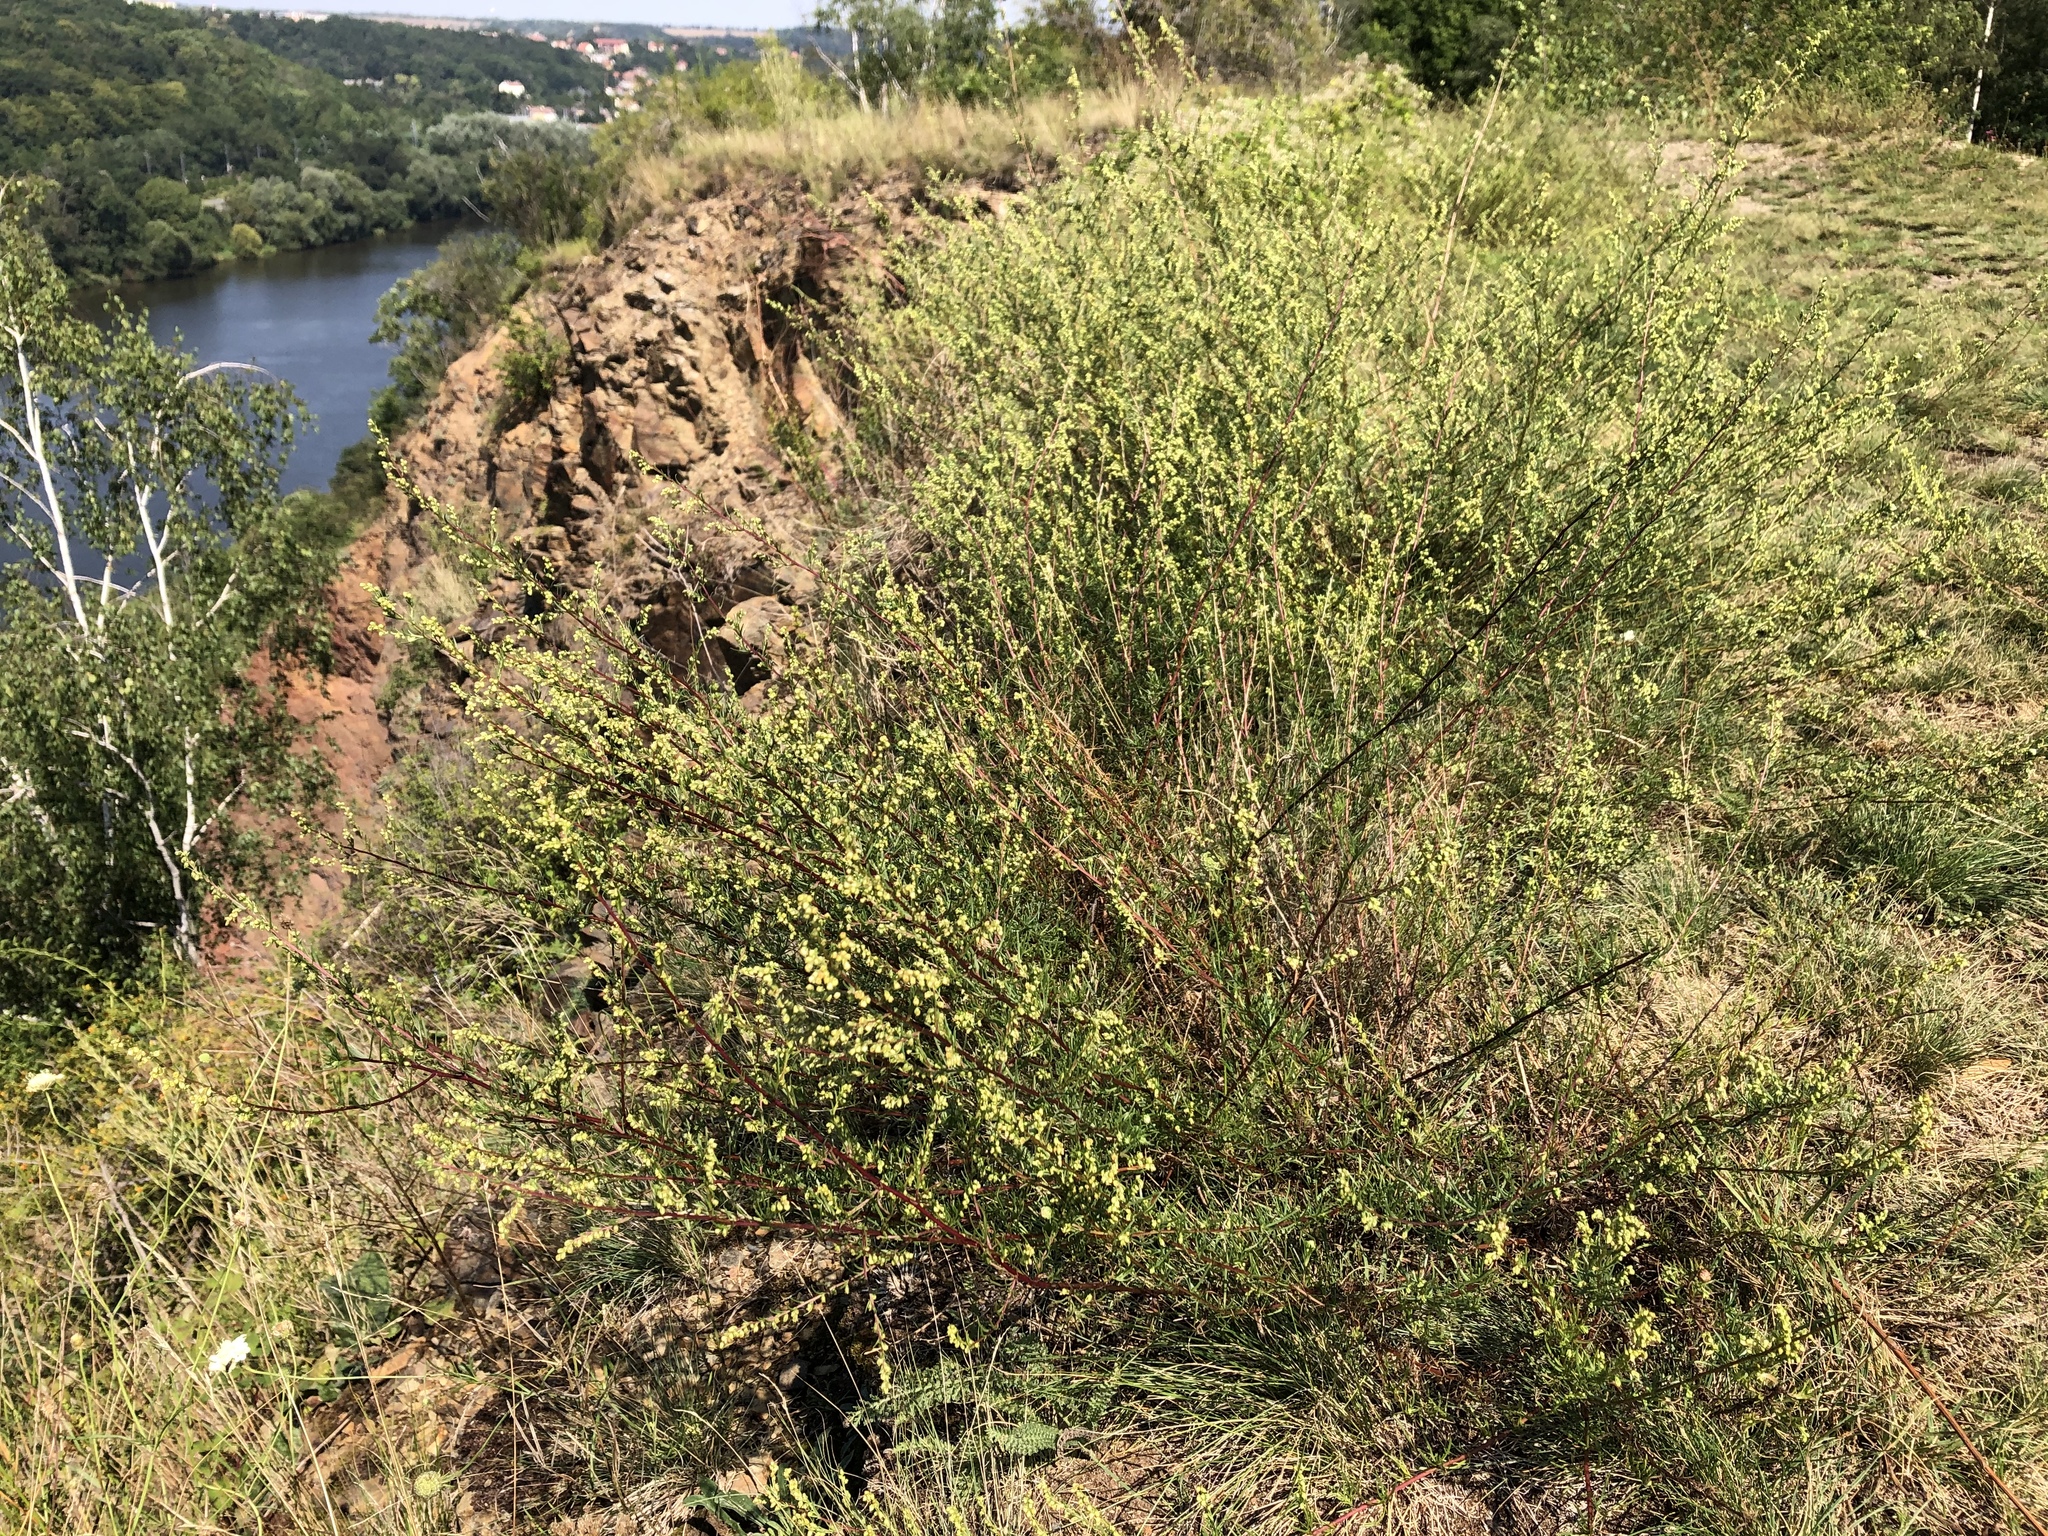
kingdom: Plantae
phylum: Tracheophyta
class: Magnoliopsida
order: Asterales
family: Asteraceae
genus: Artemisia
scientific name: Artemisia campestris
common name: Field wormwood
